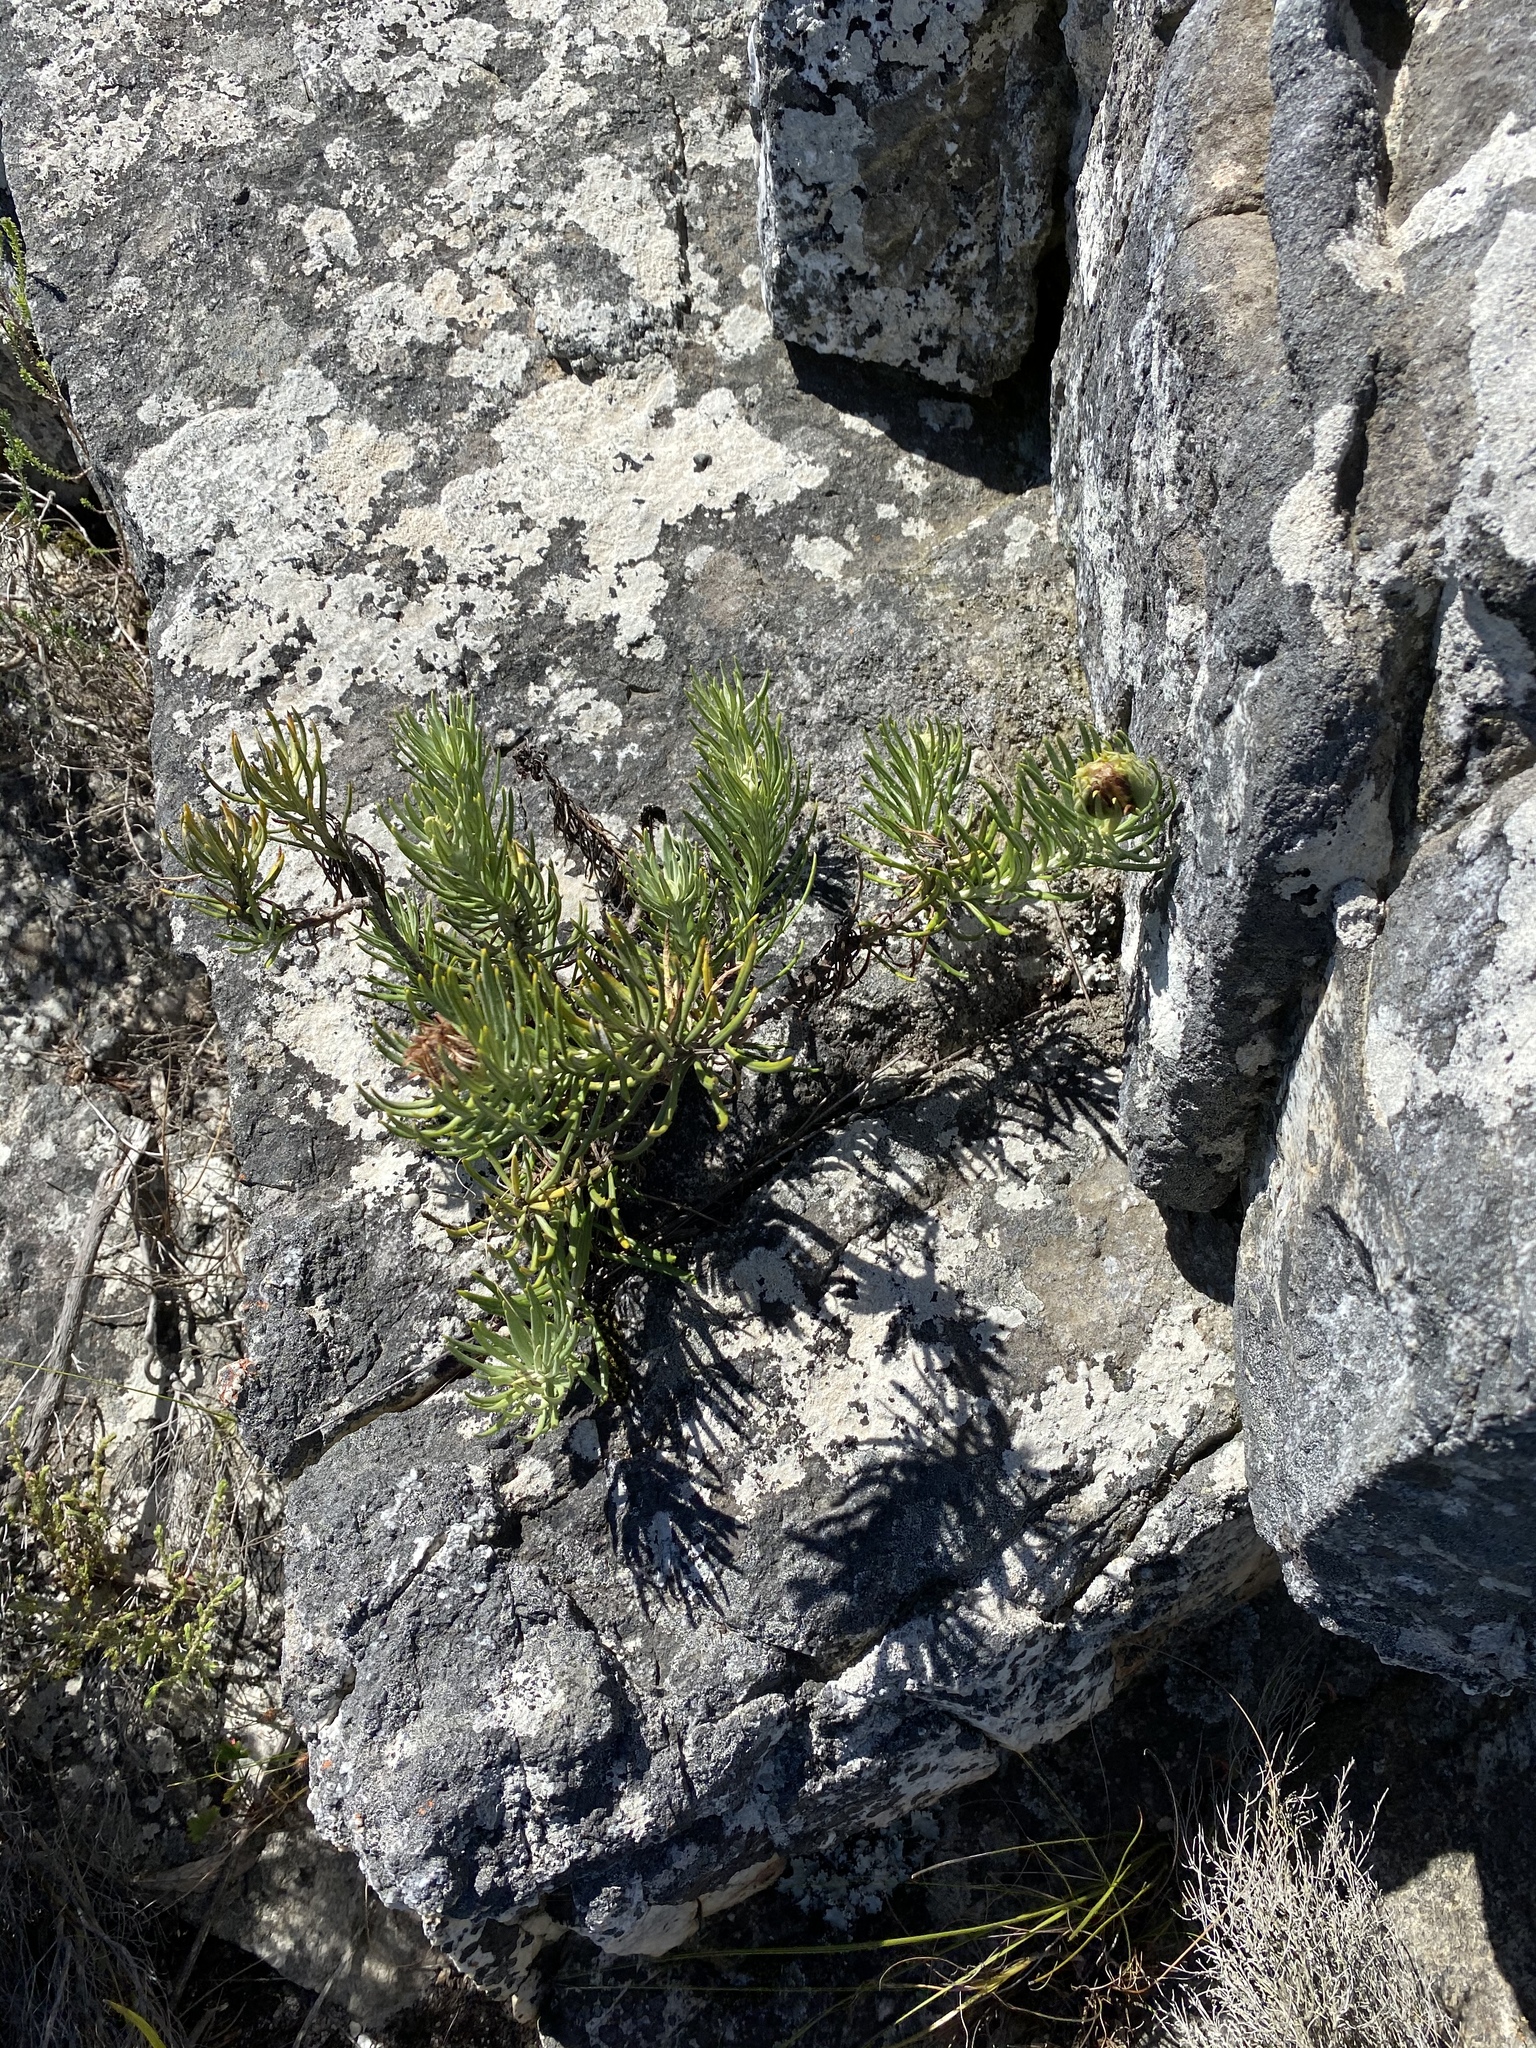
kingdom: Plantae
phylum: Tracheophyta
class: Magnoliopsida
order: Asterales
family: Asteraceae
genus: Heterolepis
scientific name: Heterolepis aliena
